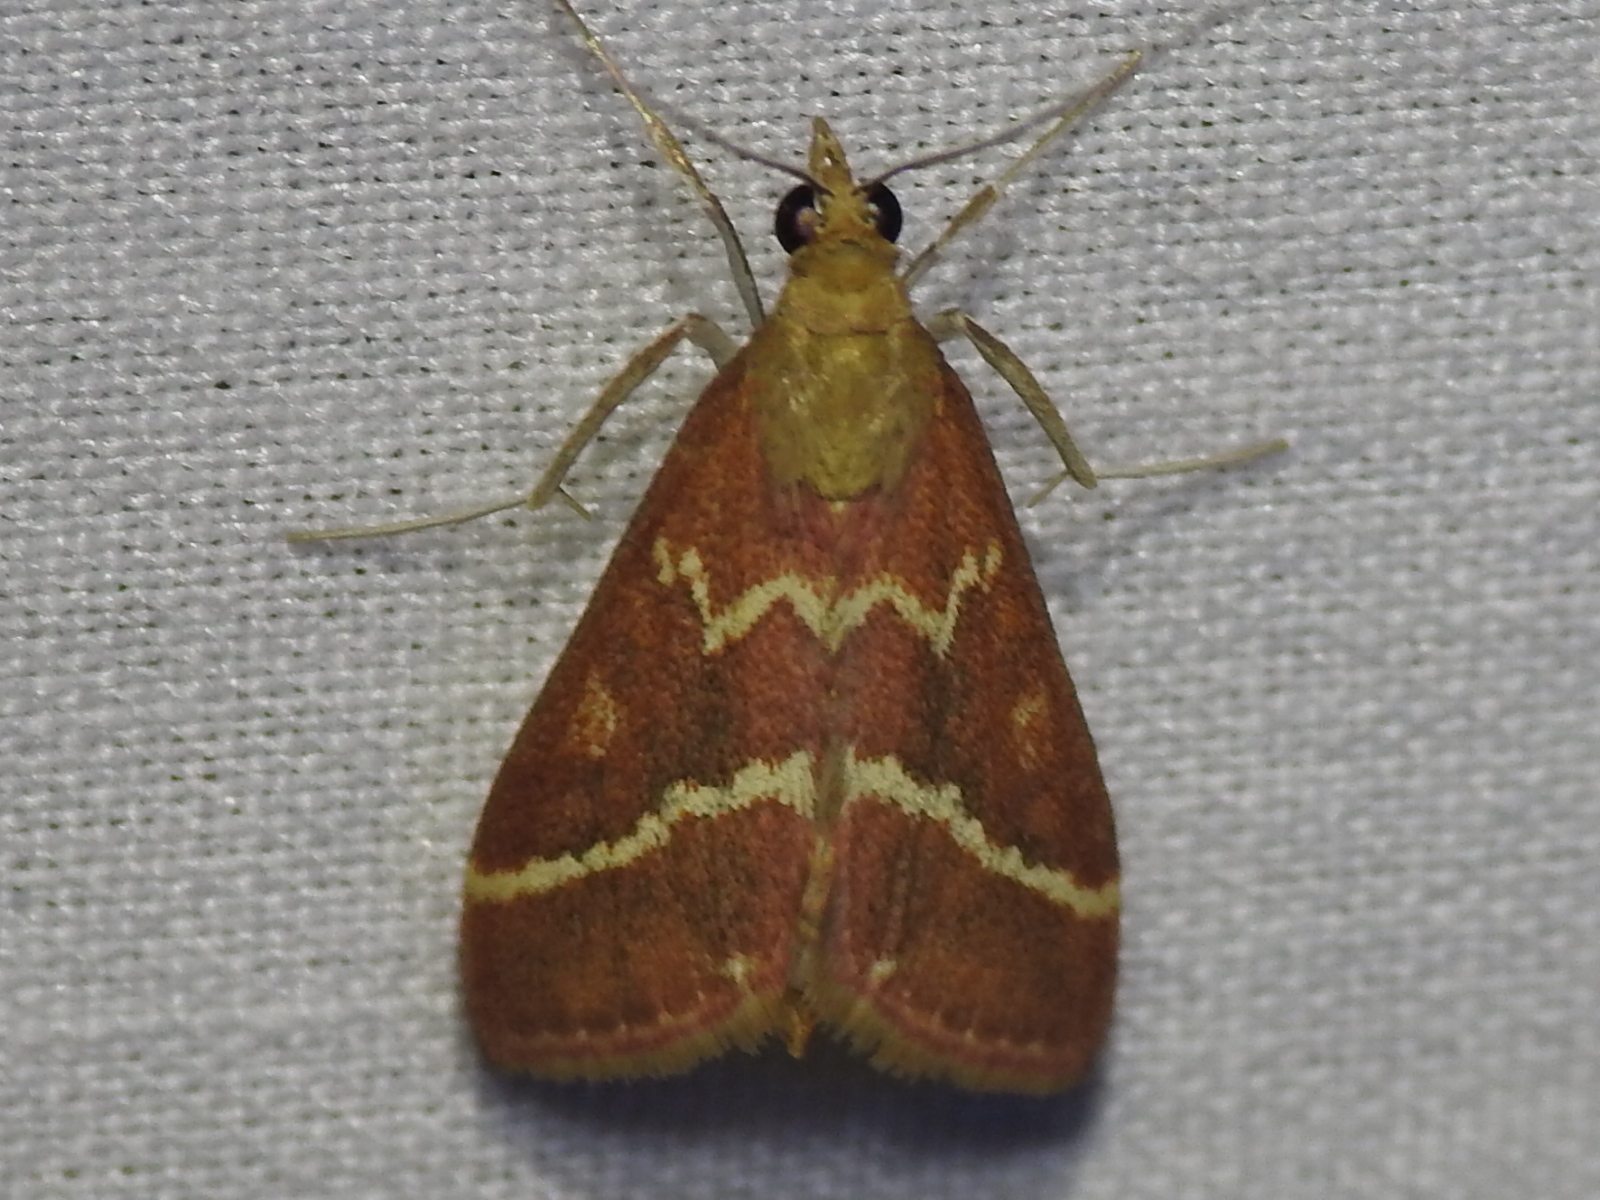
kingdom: Animalia
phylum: Arthropoda
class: Insecta
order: Lepidoptera
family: Crambidae
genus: Pyrausta
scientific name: Pyrausta volupialis
